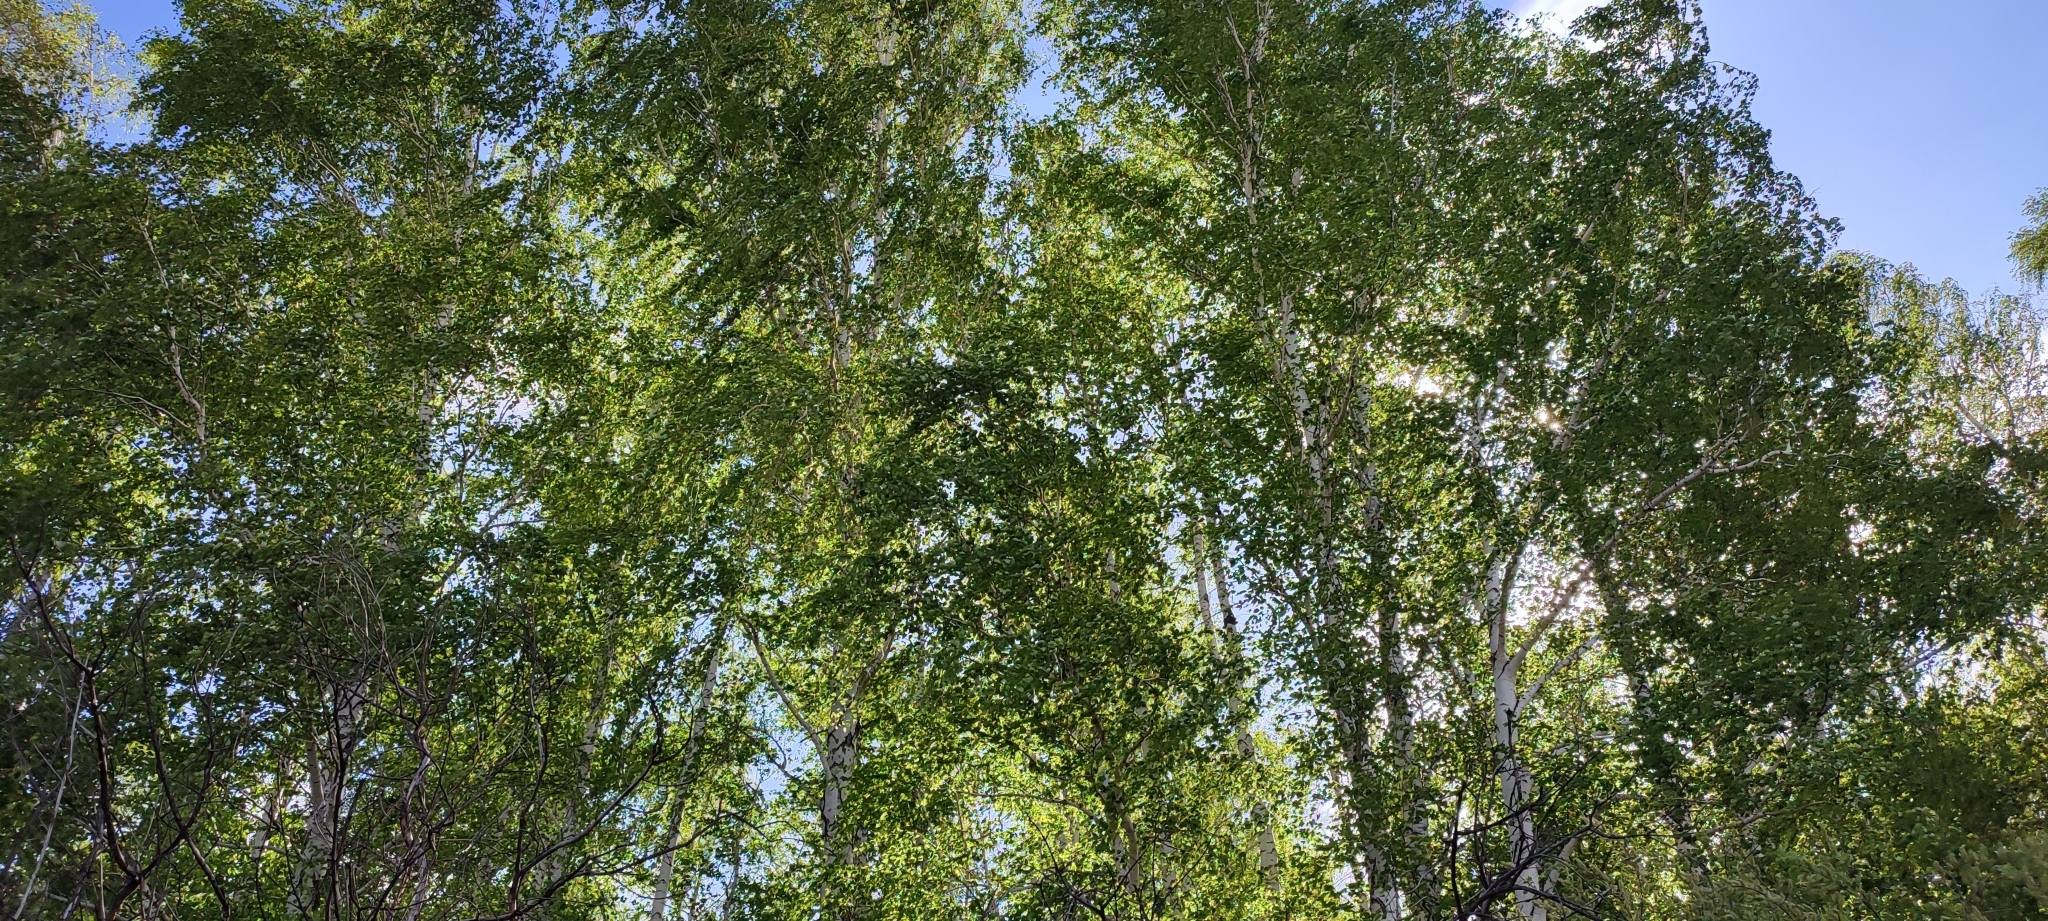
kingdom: Plantae
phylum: Tracheophyta
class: Magnoliopsida
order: Fagales
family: Betulaceae
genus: Betula
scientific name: Betula pendula
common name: Silver birch
